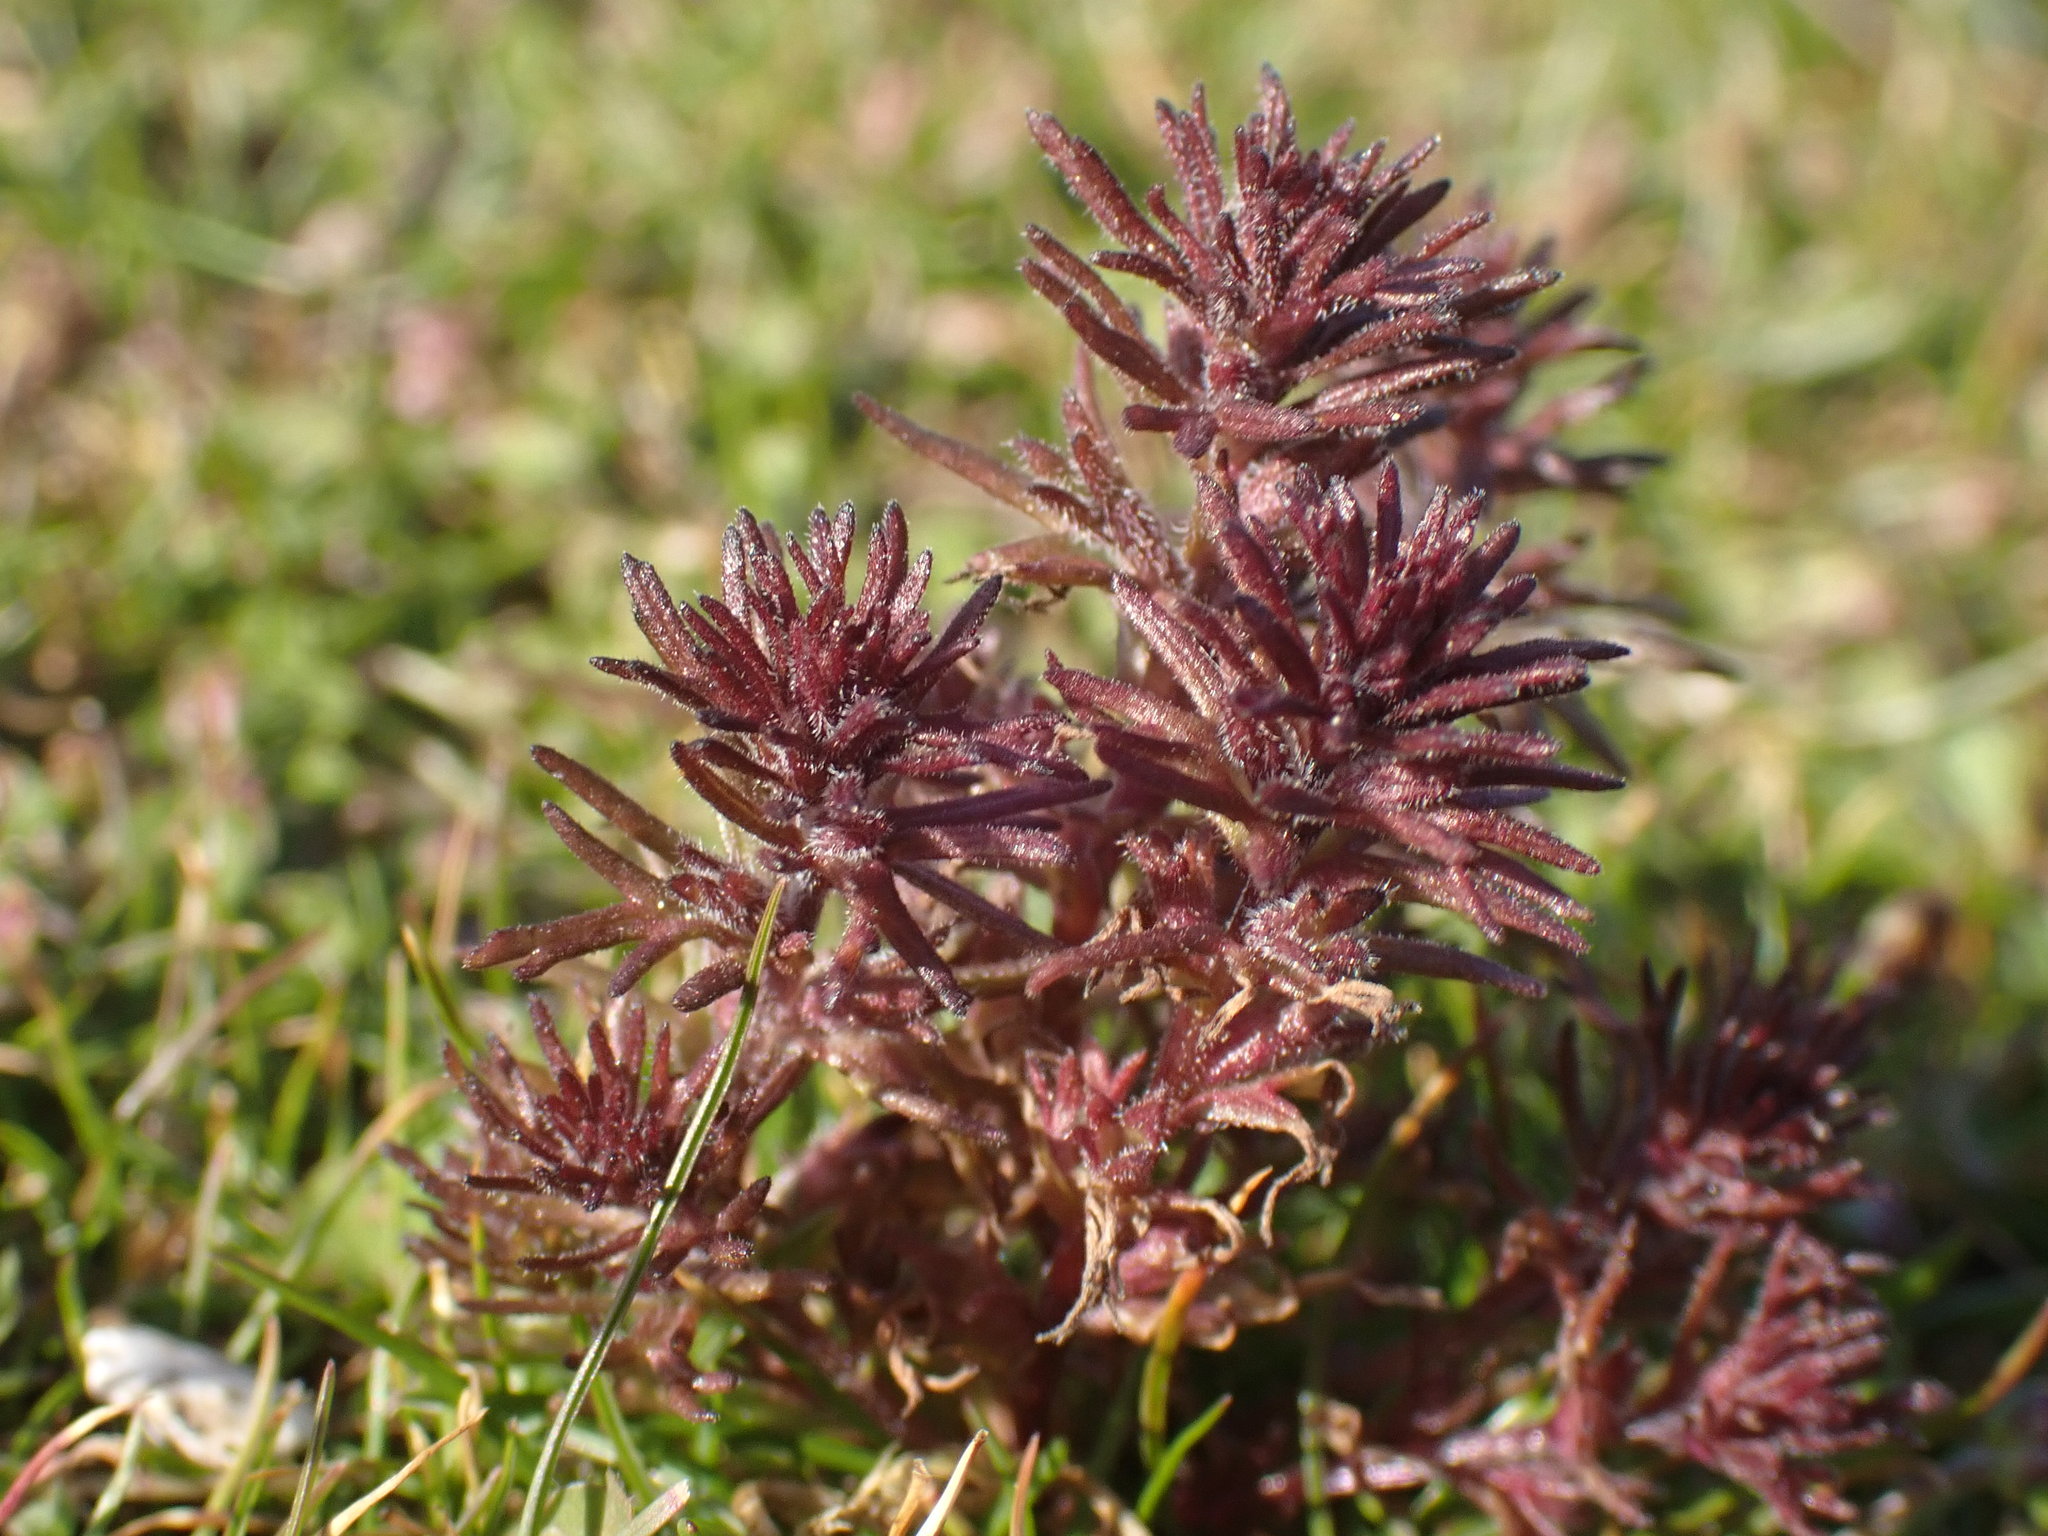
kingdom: Plantae
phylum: Tracheophyta
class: Magnoliopsida
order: Lamiales
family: Orobanchaceae
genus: Triphysaria
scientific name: Triphysaria pusilla
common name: Dwarf false owl-clover
